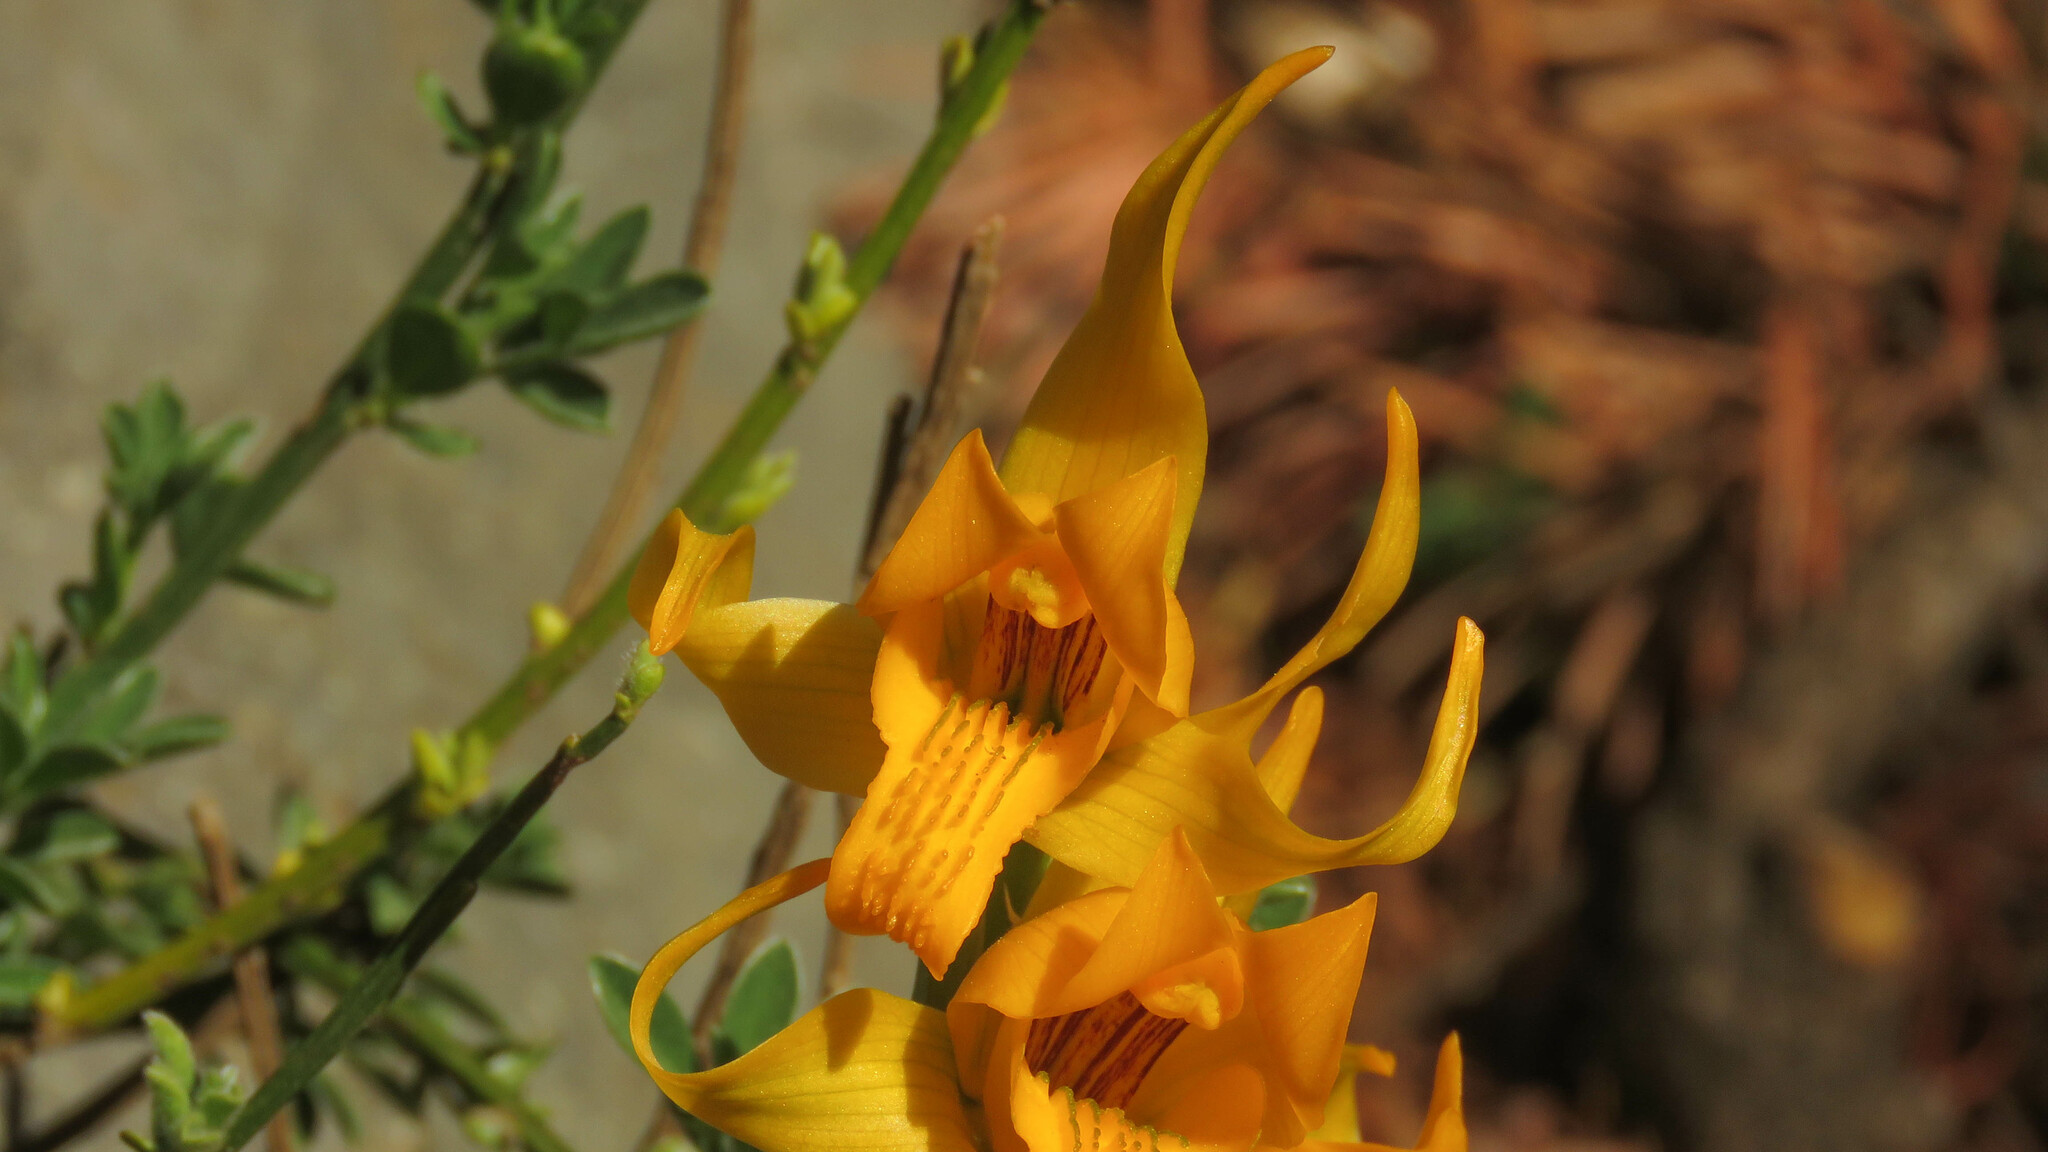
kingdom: Plantae
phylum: Tracheophyta
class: Liliopsida
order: Asparagales
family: Orchidaceae
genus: Chloraea
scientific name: Chloraea alpina
